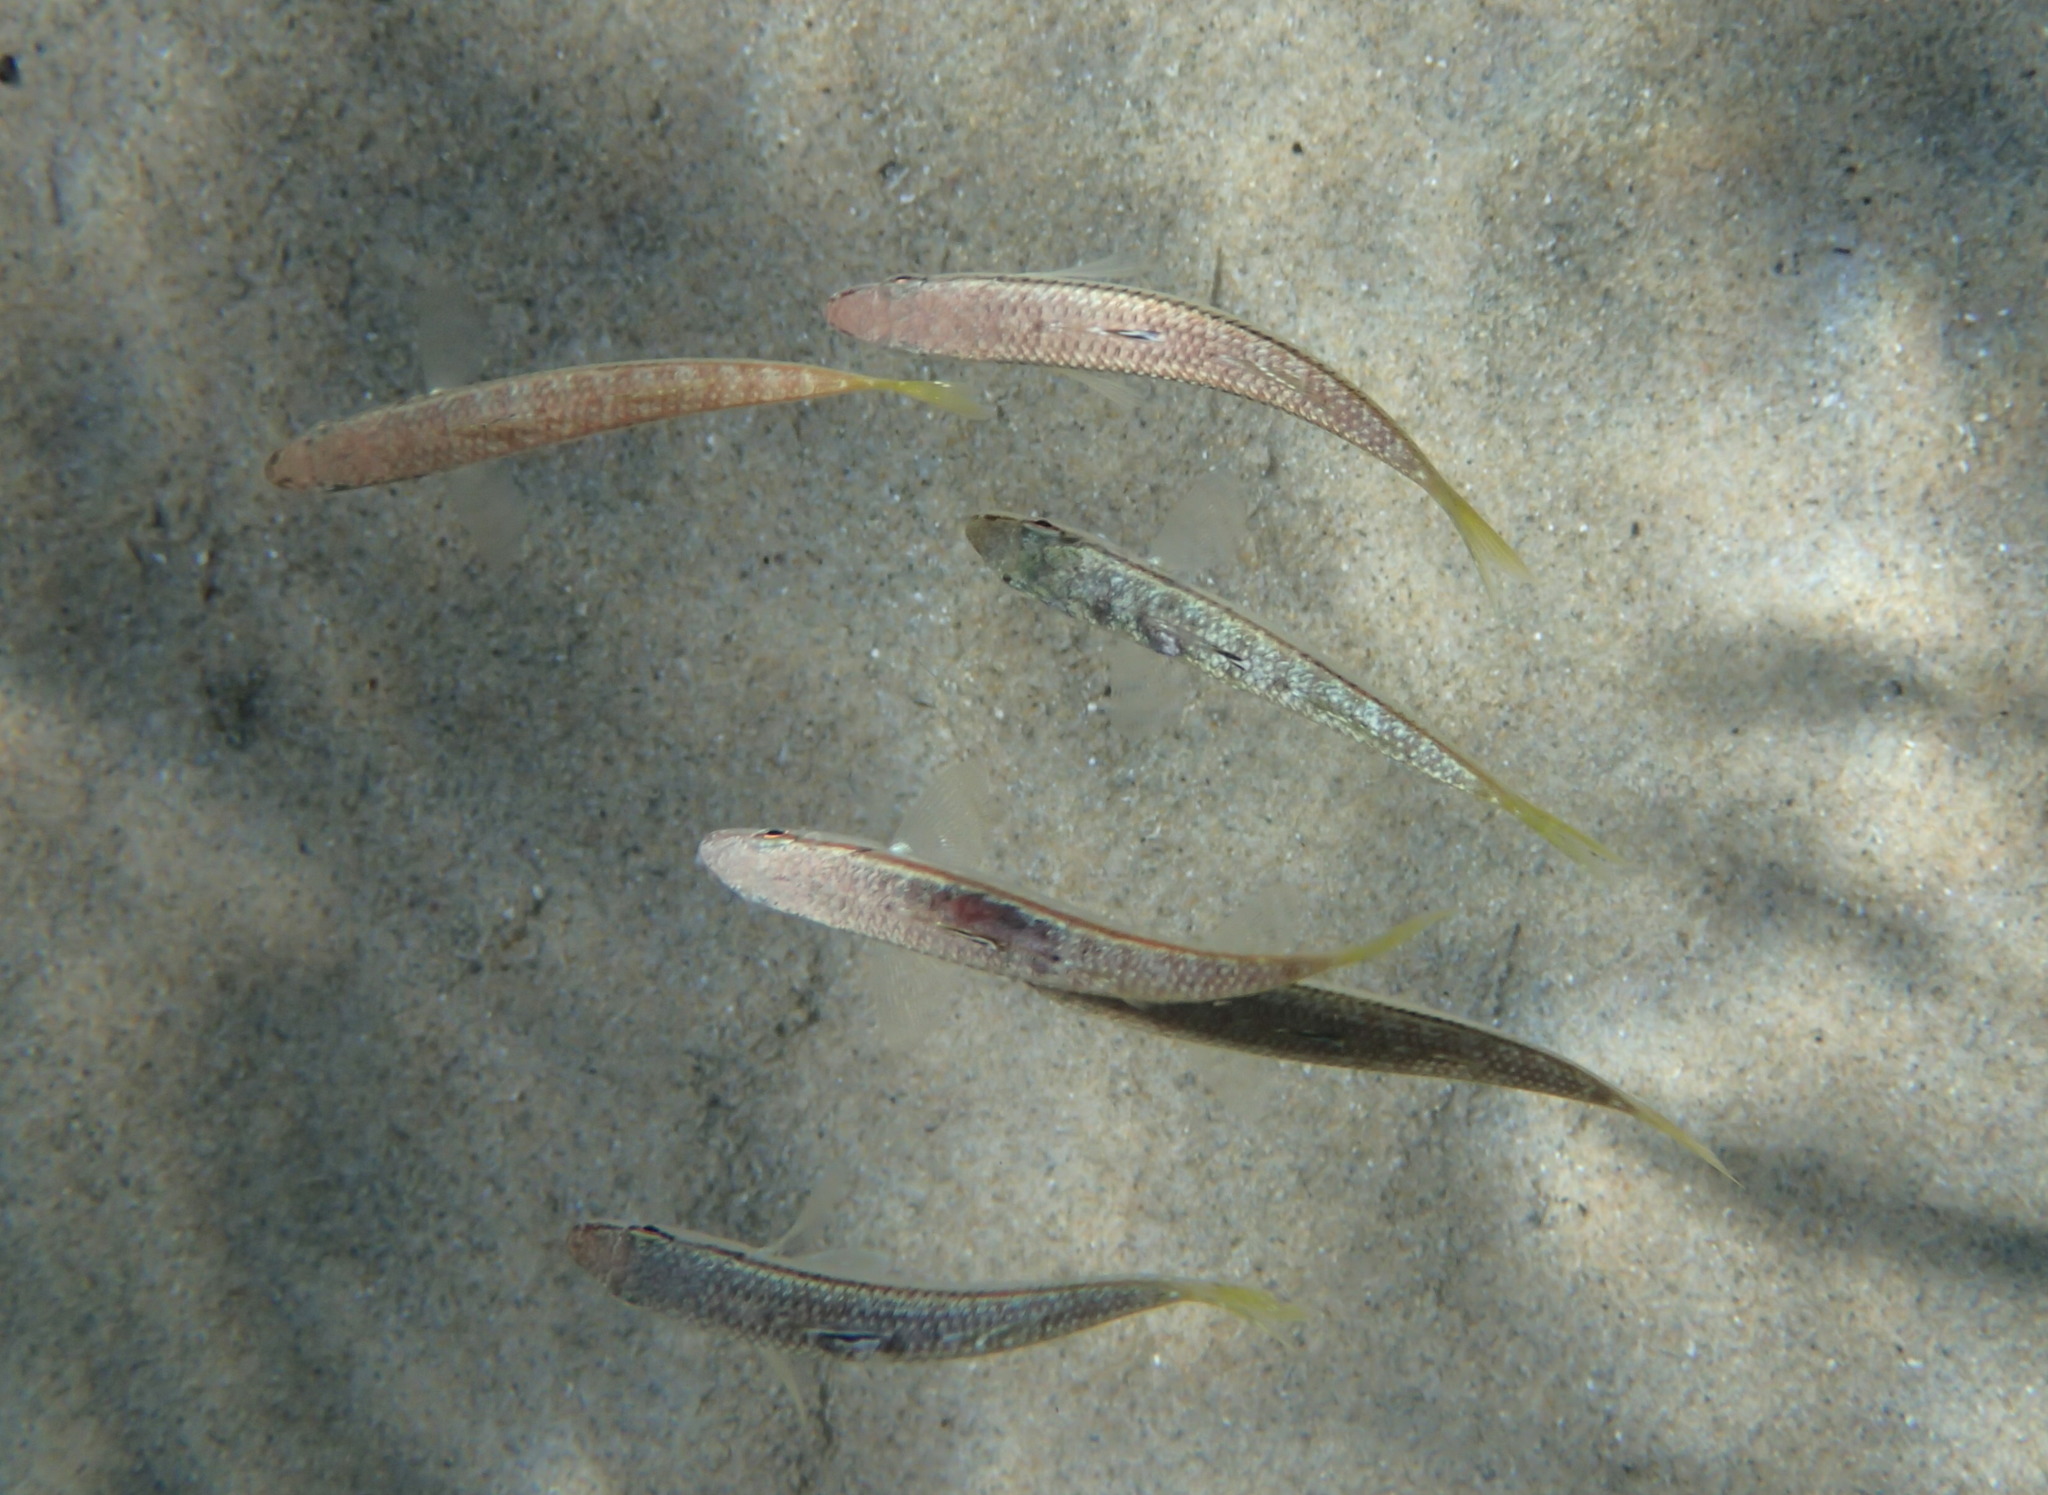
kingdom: Animalia
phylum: Chordata
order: Perciformes
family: Mullidae
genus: Mullus
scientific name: Mullus surmuletus
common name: Red mullet
